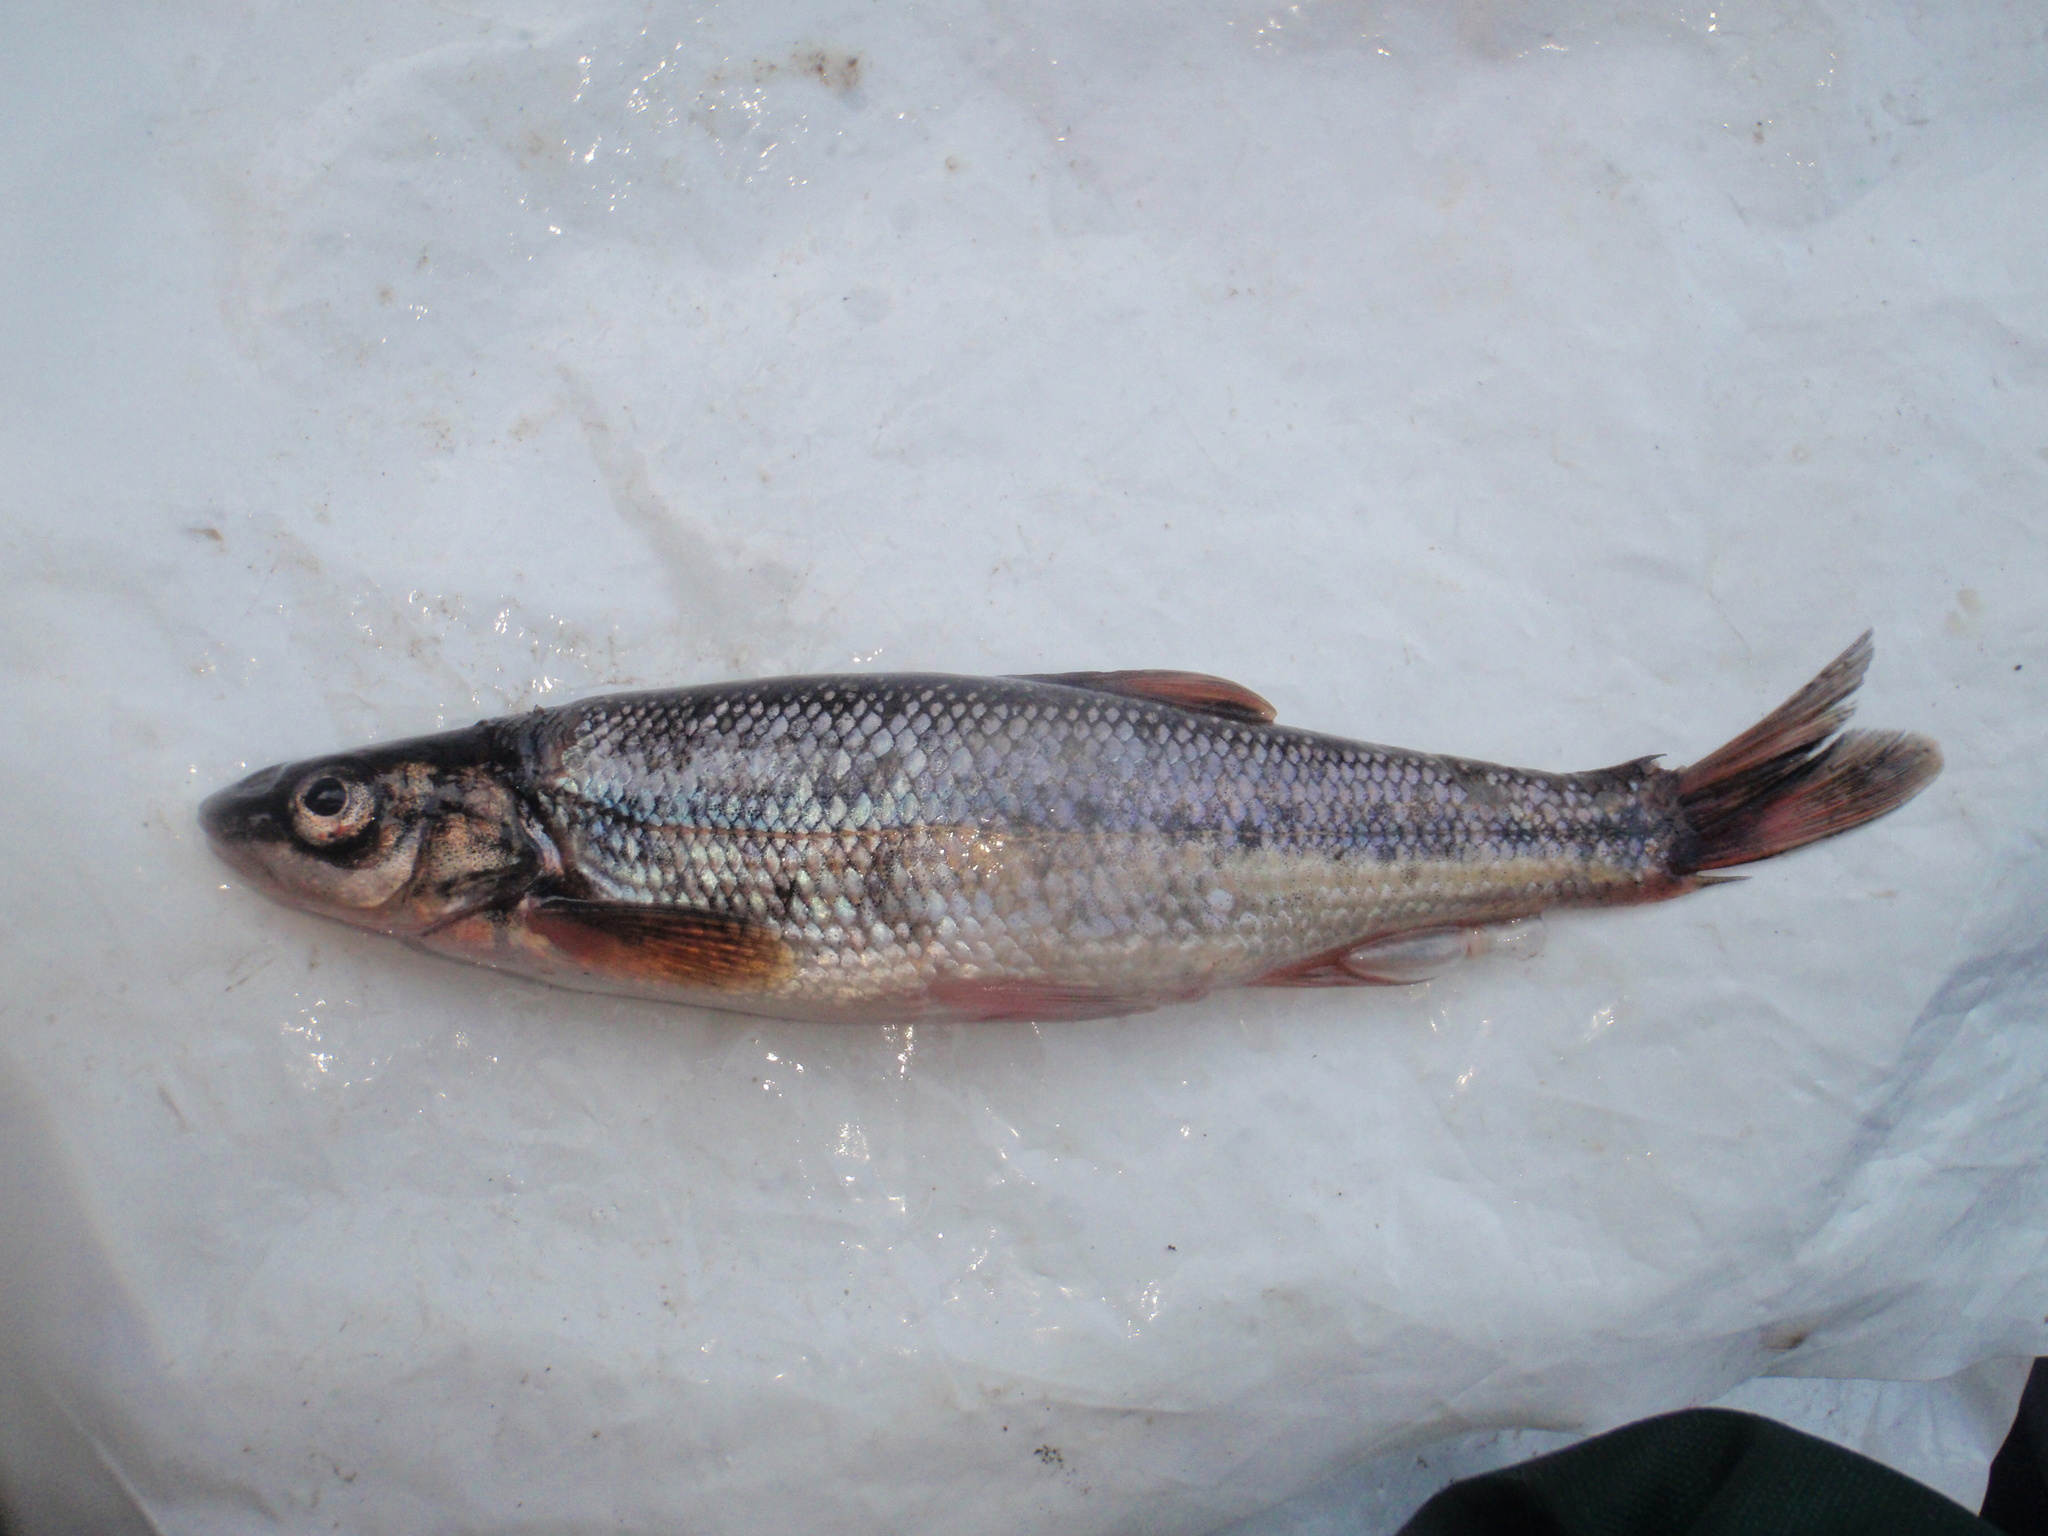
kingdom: Animalia
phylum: Chordata
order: Cypriniformes
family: Cyprinidae
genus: Couesius
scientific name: Couesius plumbeus
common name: Lake chub
